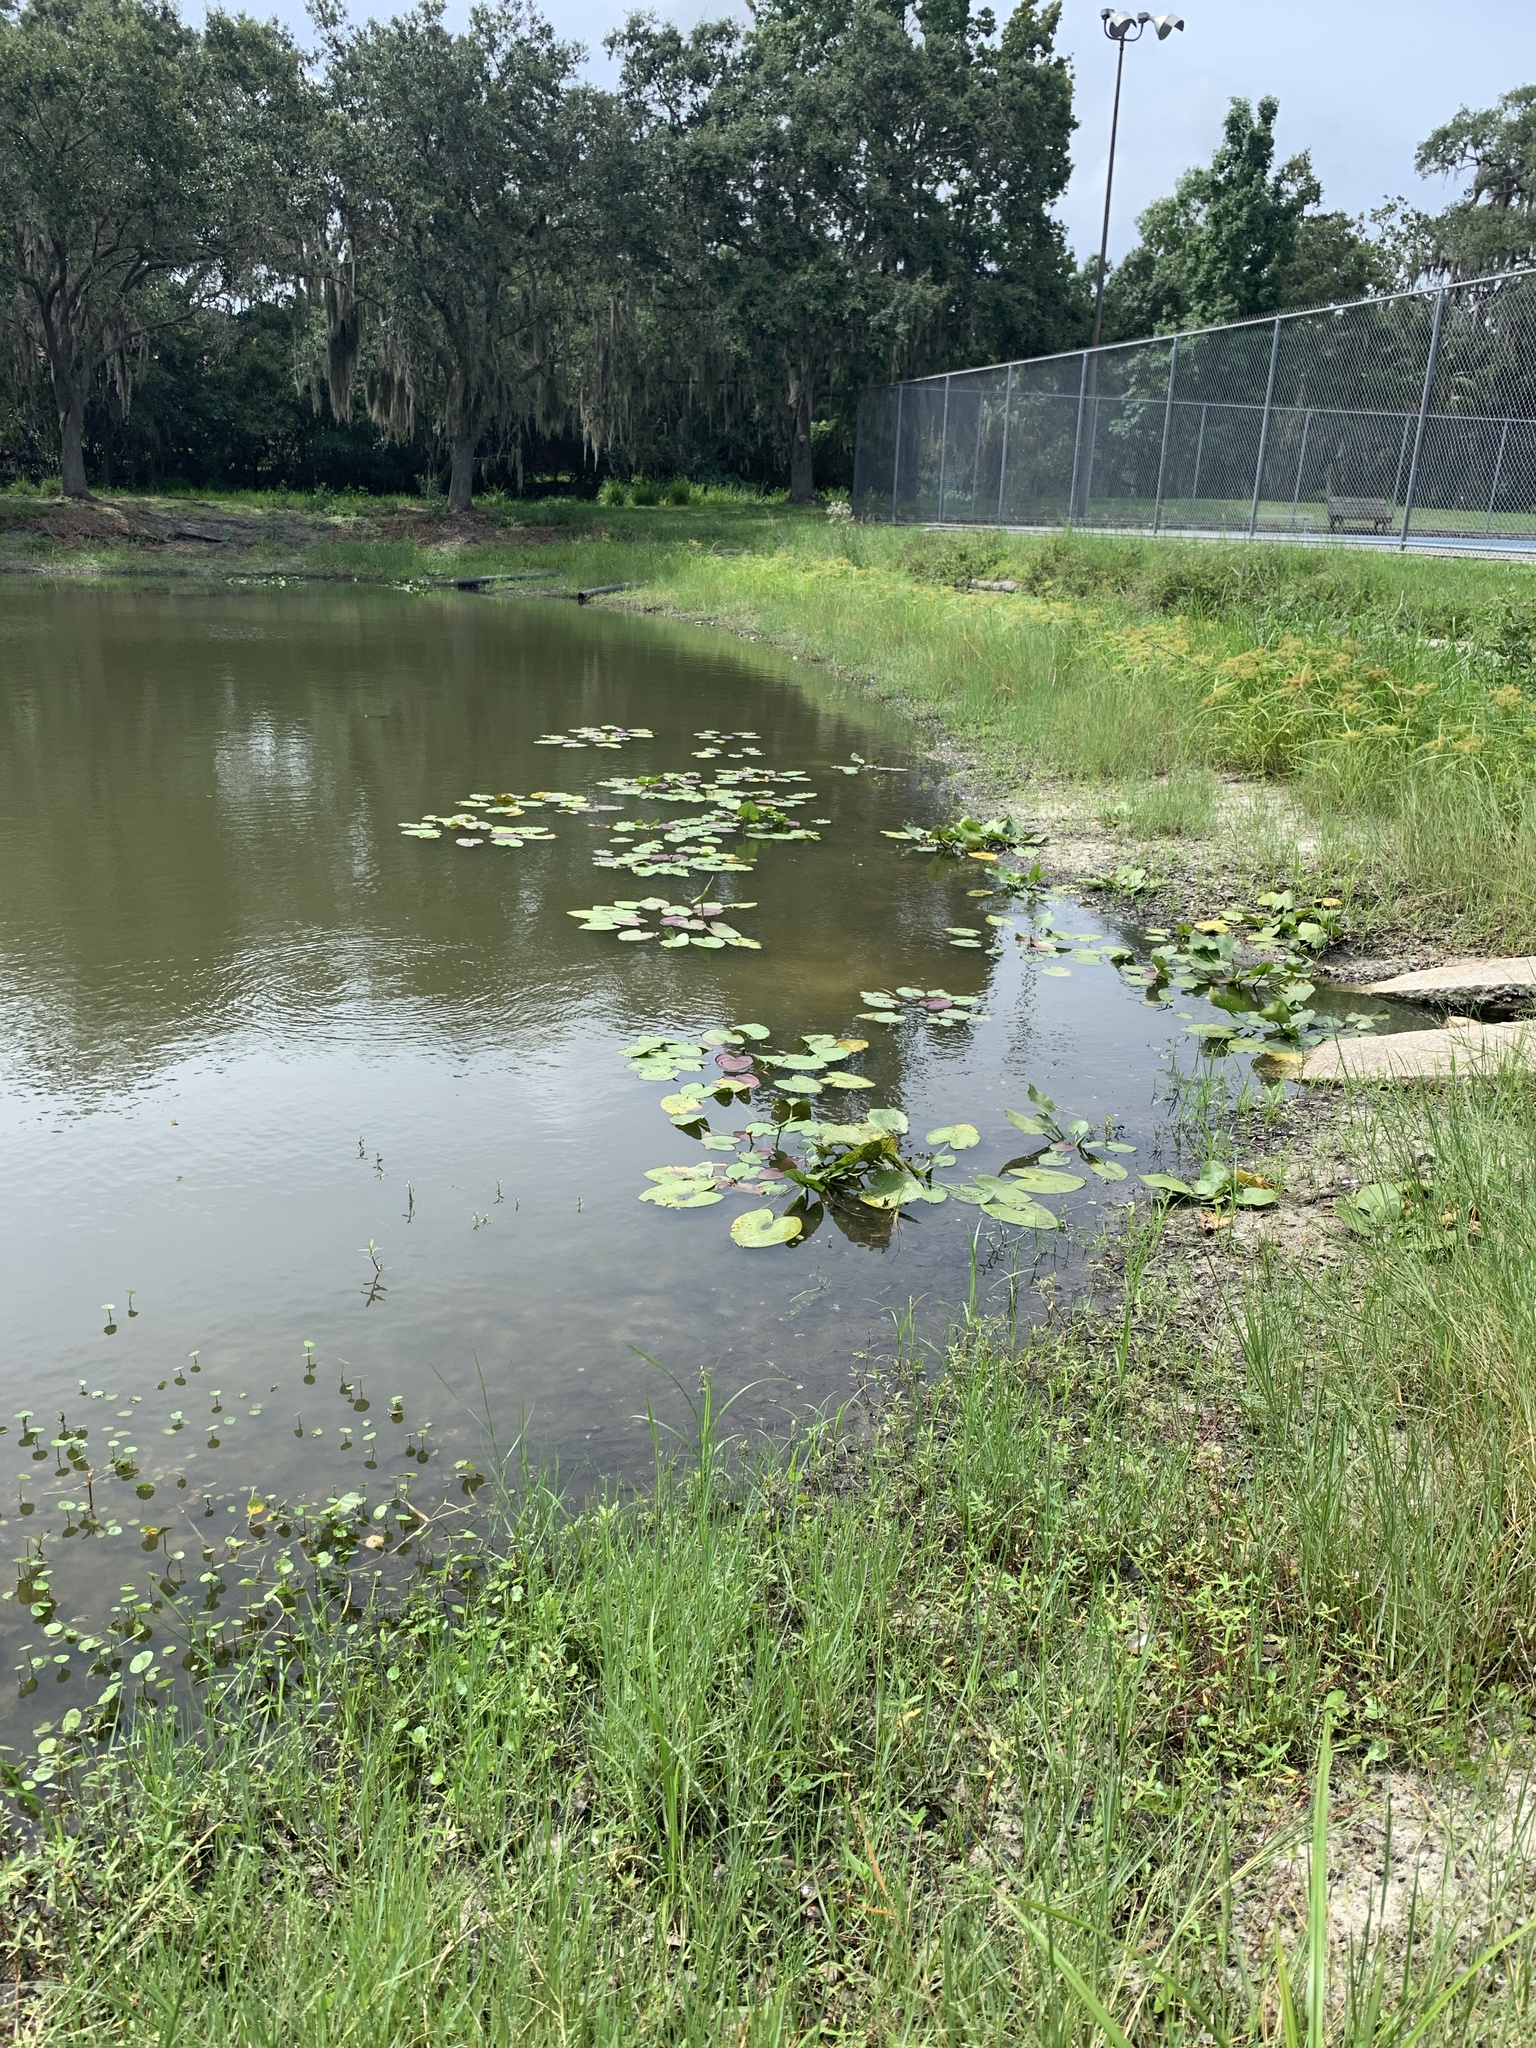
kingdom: Plantae
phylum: Tracheophyta
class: Magnoliopsida
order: Nymphaeales
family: Nymphaeaceae
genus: Nuphar
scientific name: Nuphar advena
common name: Spatter-dock
